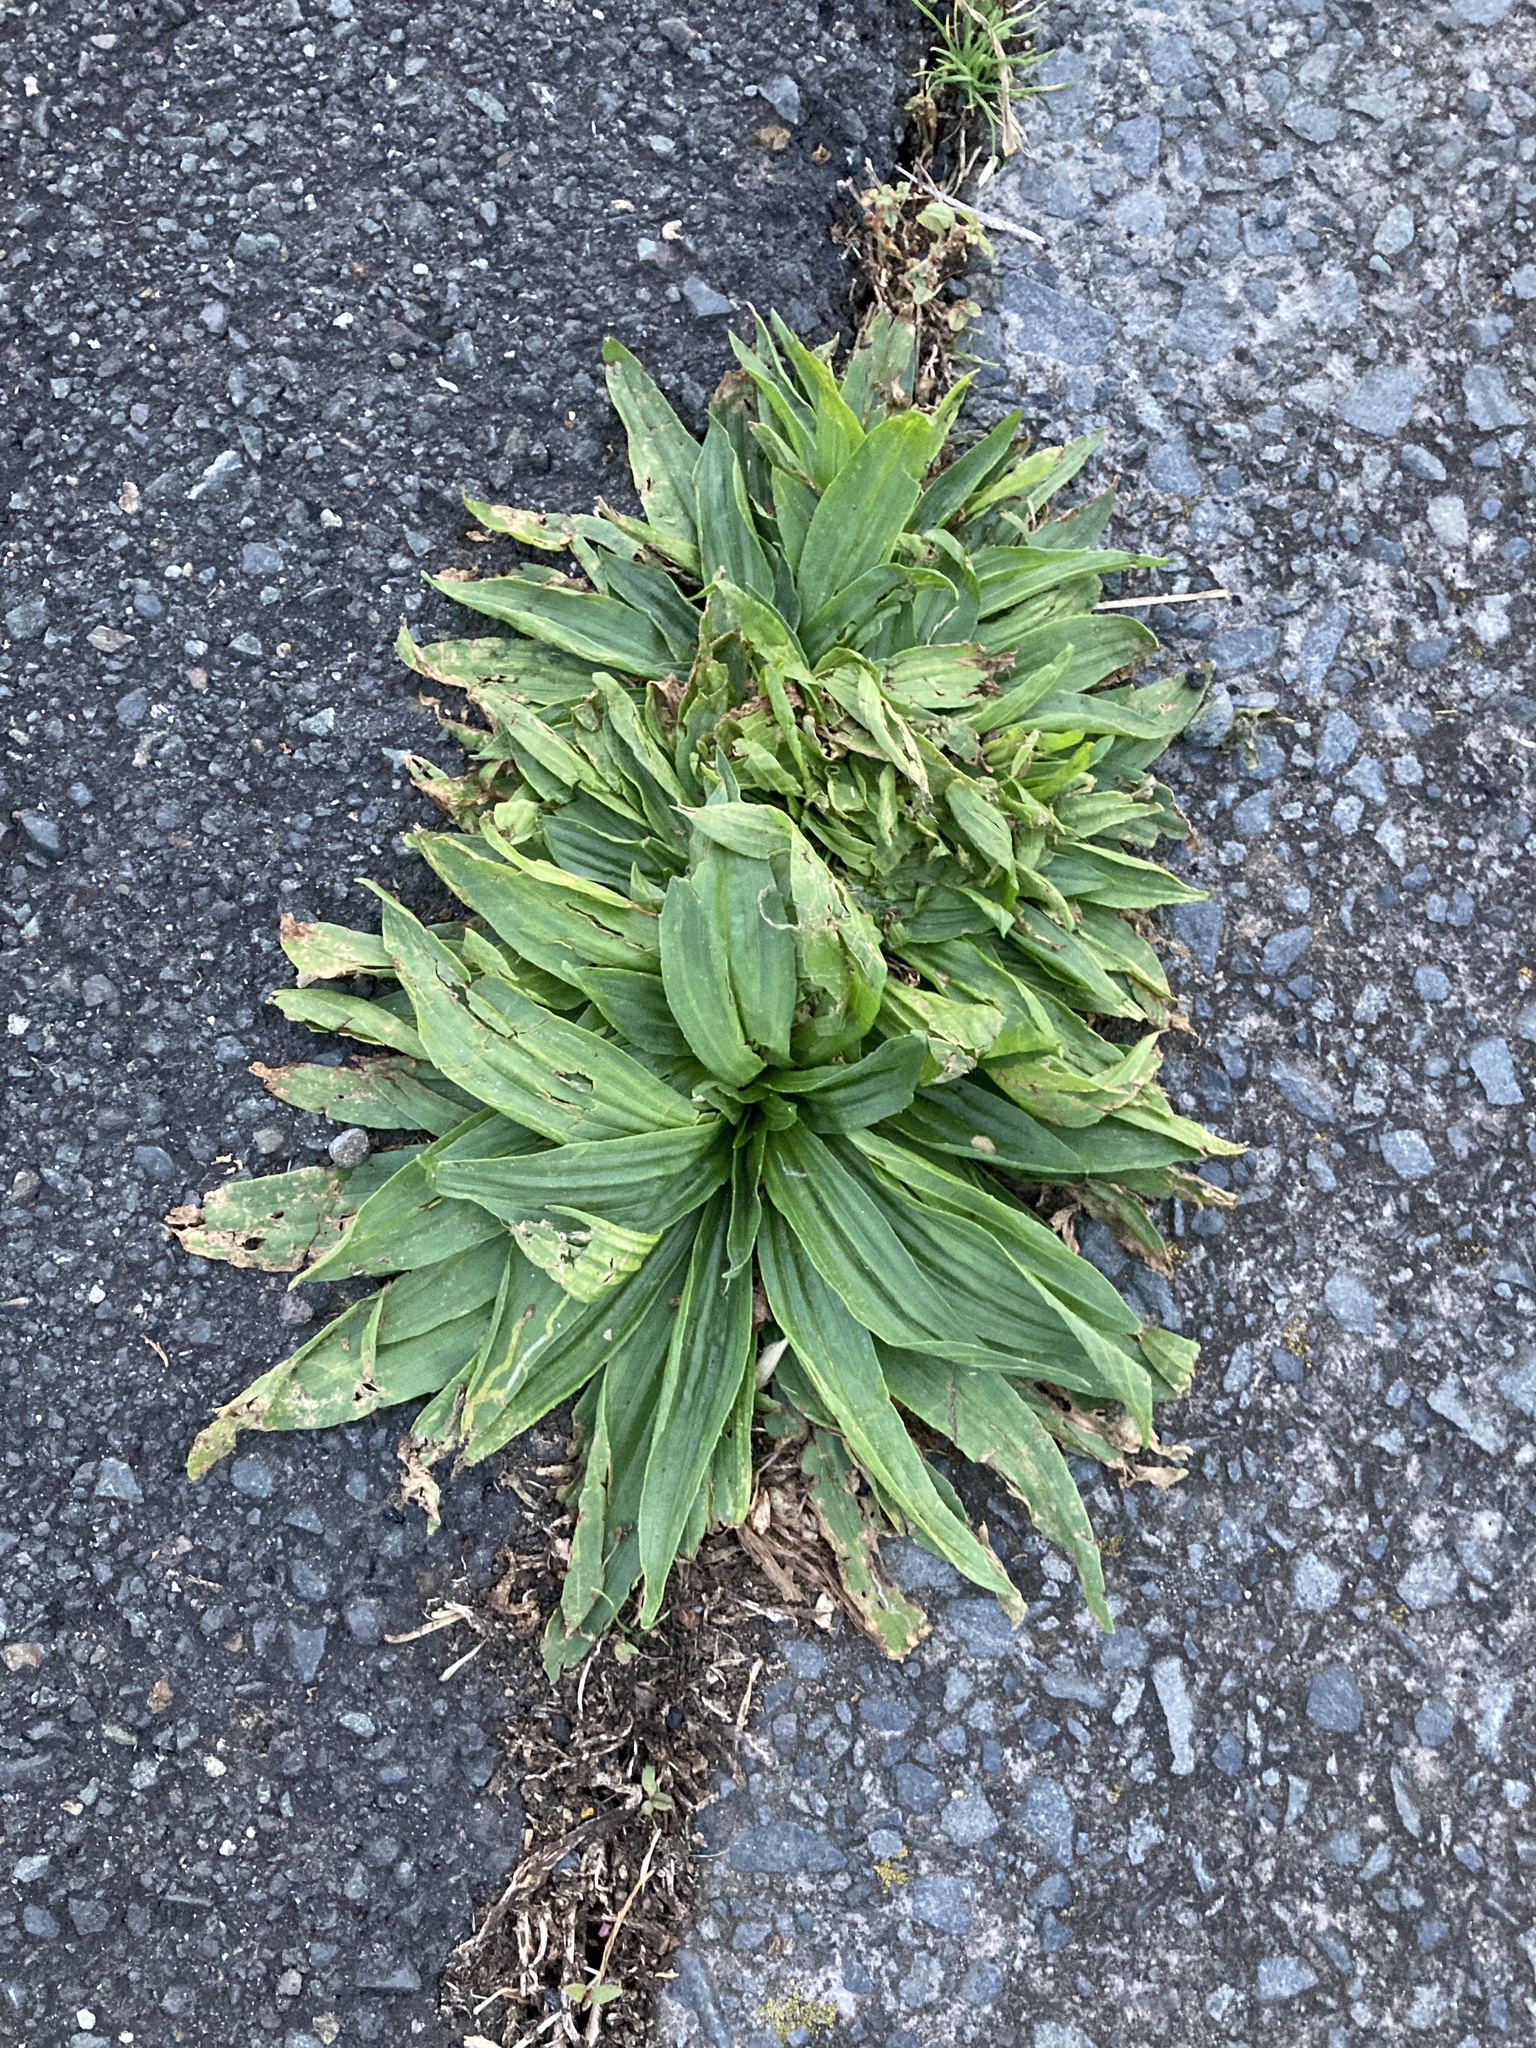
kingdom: Plantae
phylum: Tracheophyta
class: Magnoliopsida
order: Lamiales
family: Plantaginaceae
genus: Plantago
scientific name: Plantago lanceolata
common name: Ribwort plantain
